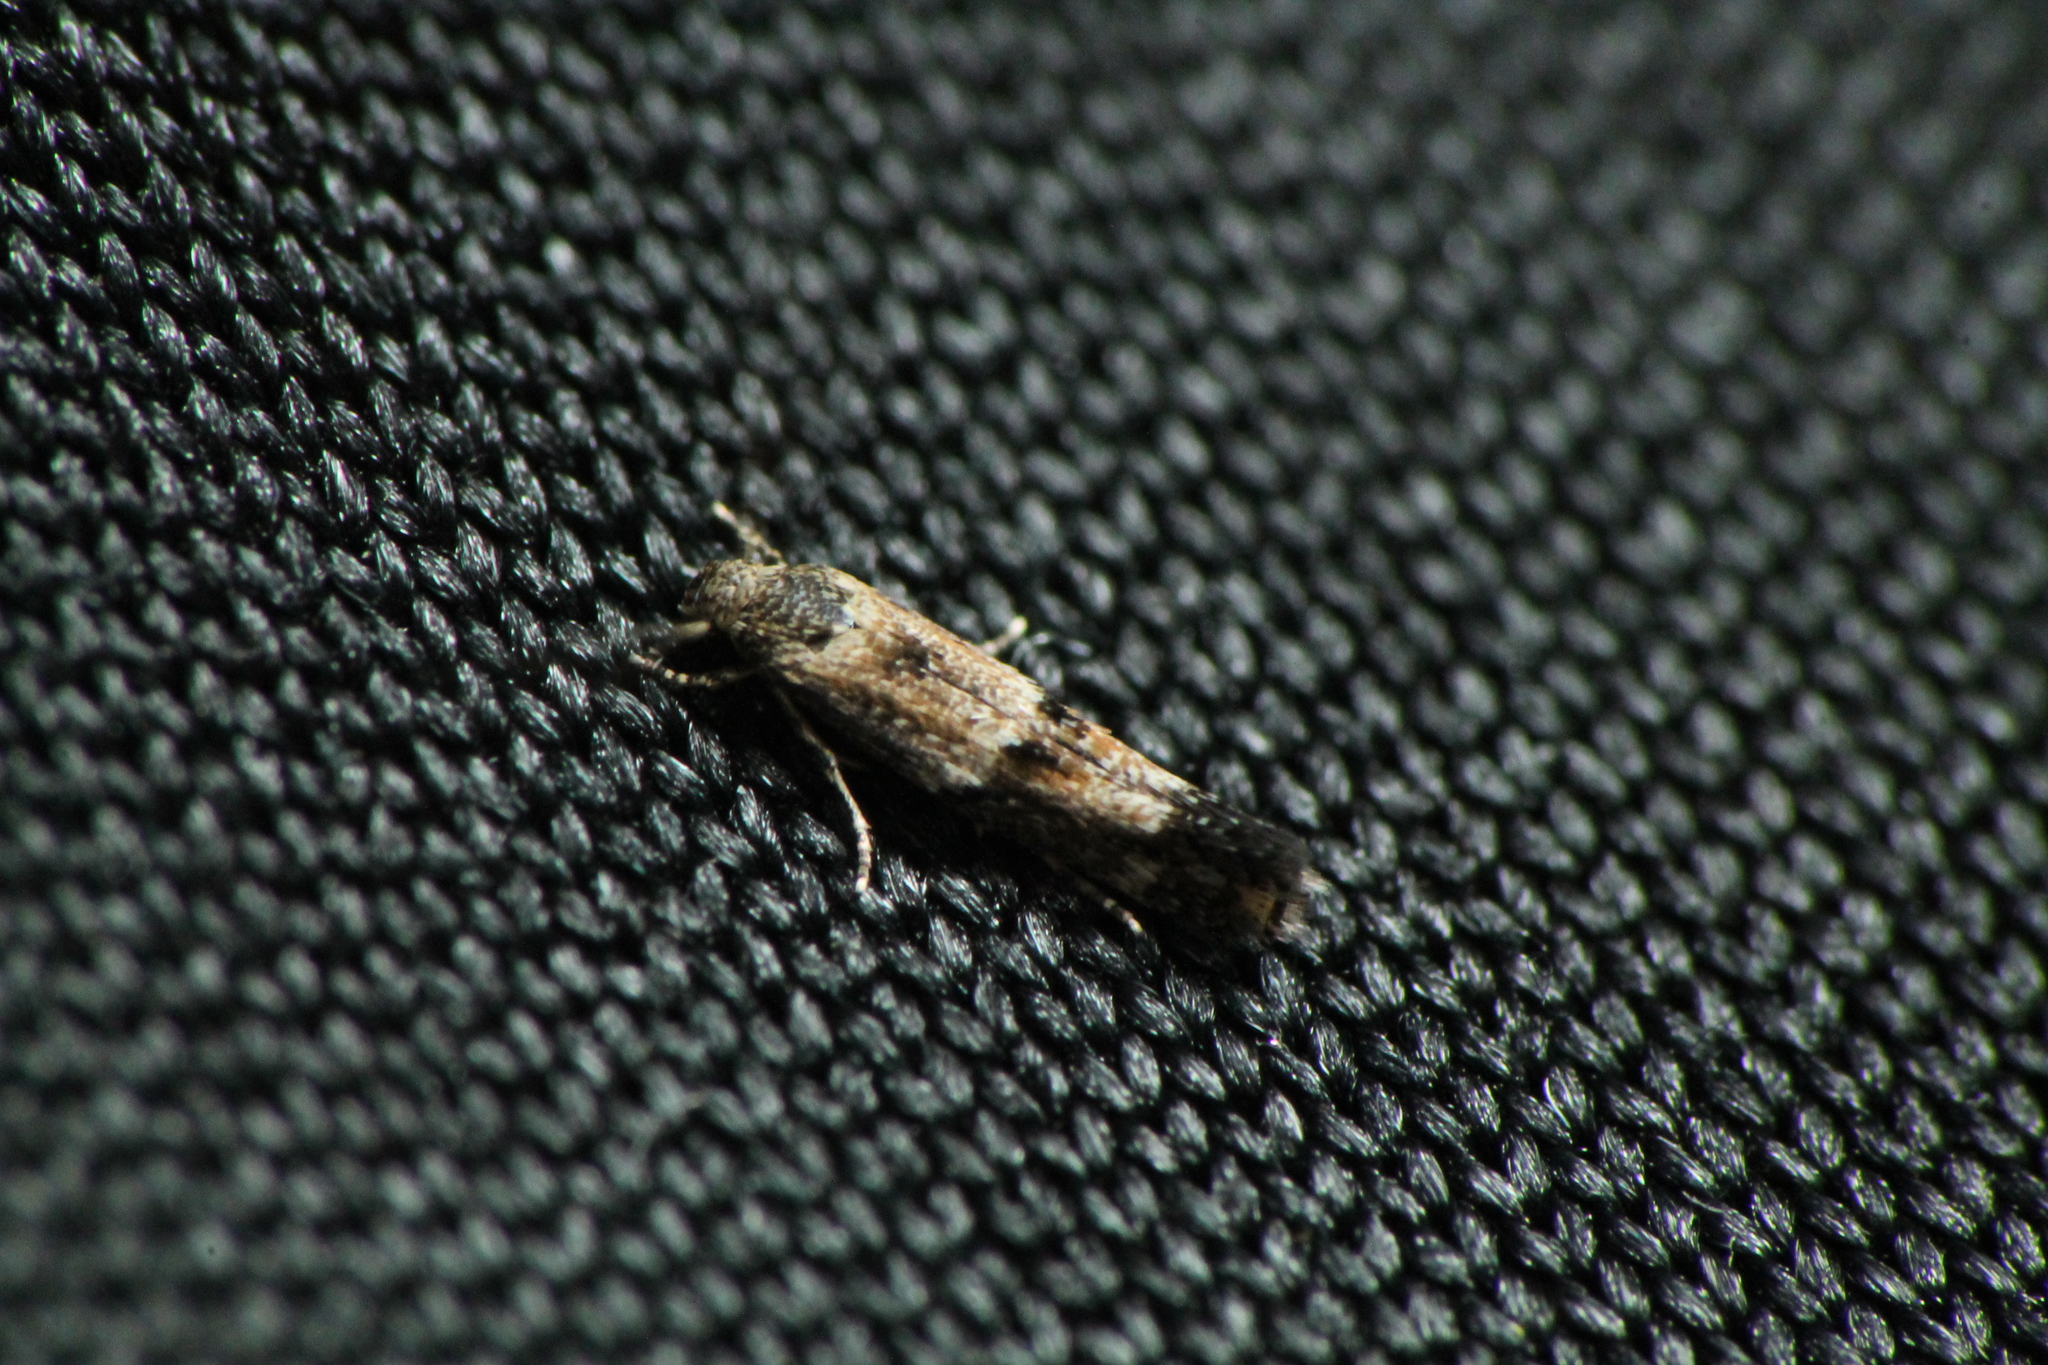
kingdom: Animalia
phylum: Arthropoda
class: Insecta
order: Lepidoptera
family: Elachistidae
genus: Elachista
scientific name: Elachista archaeonoma
